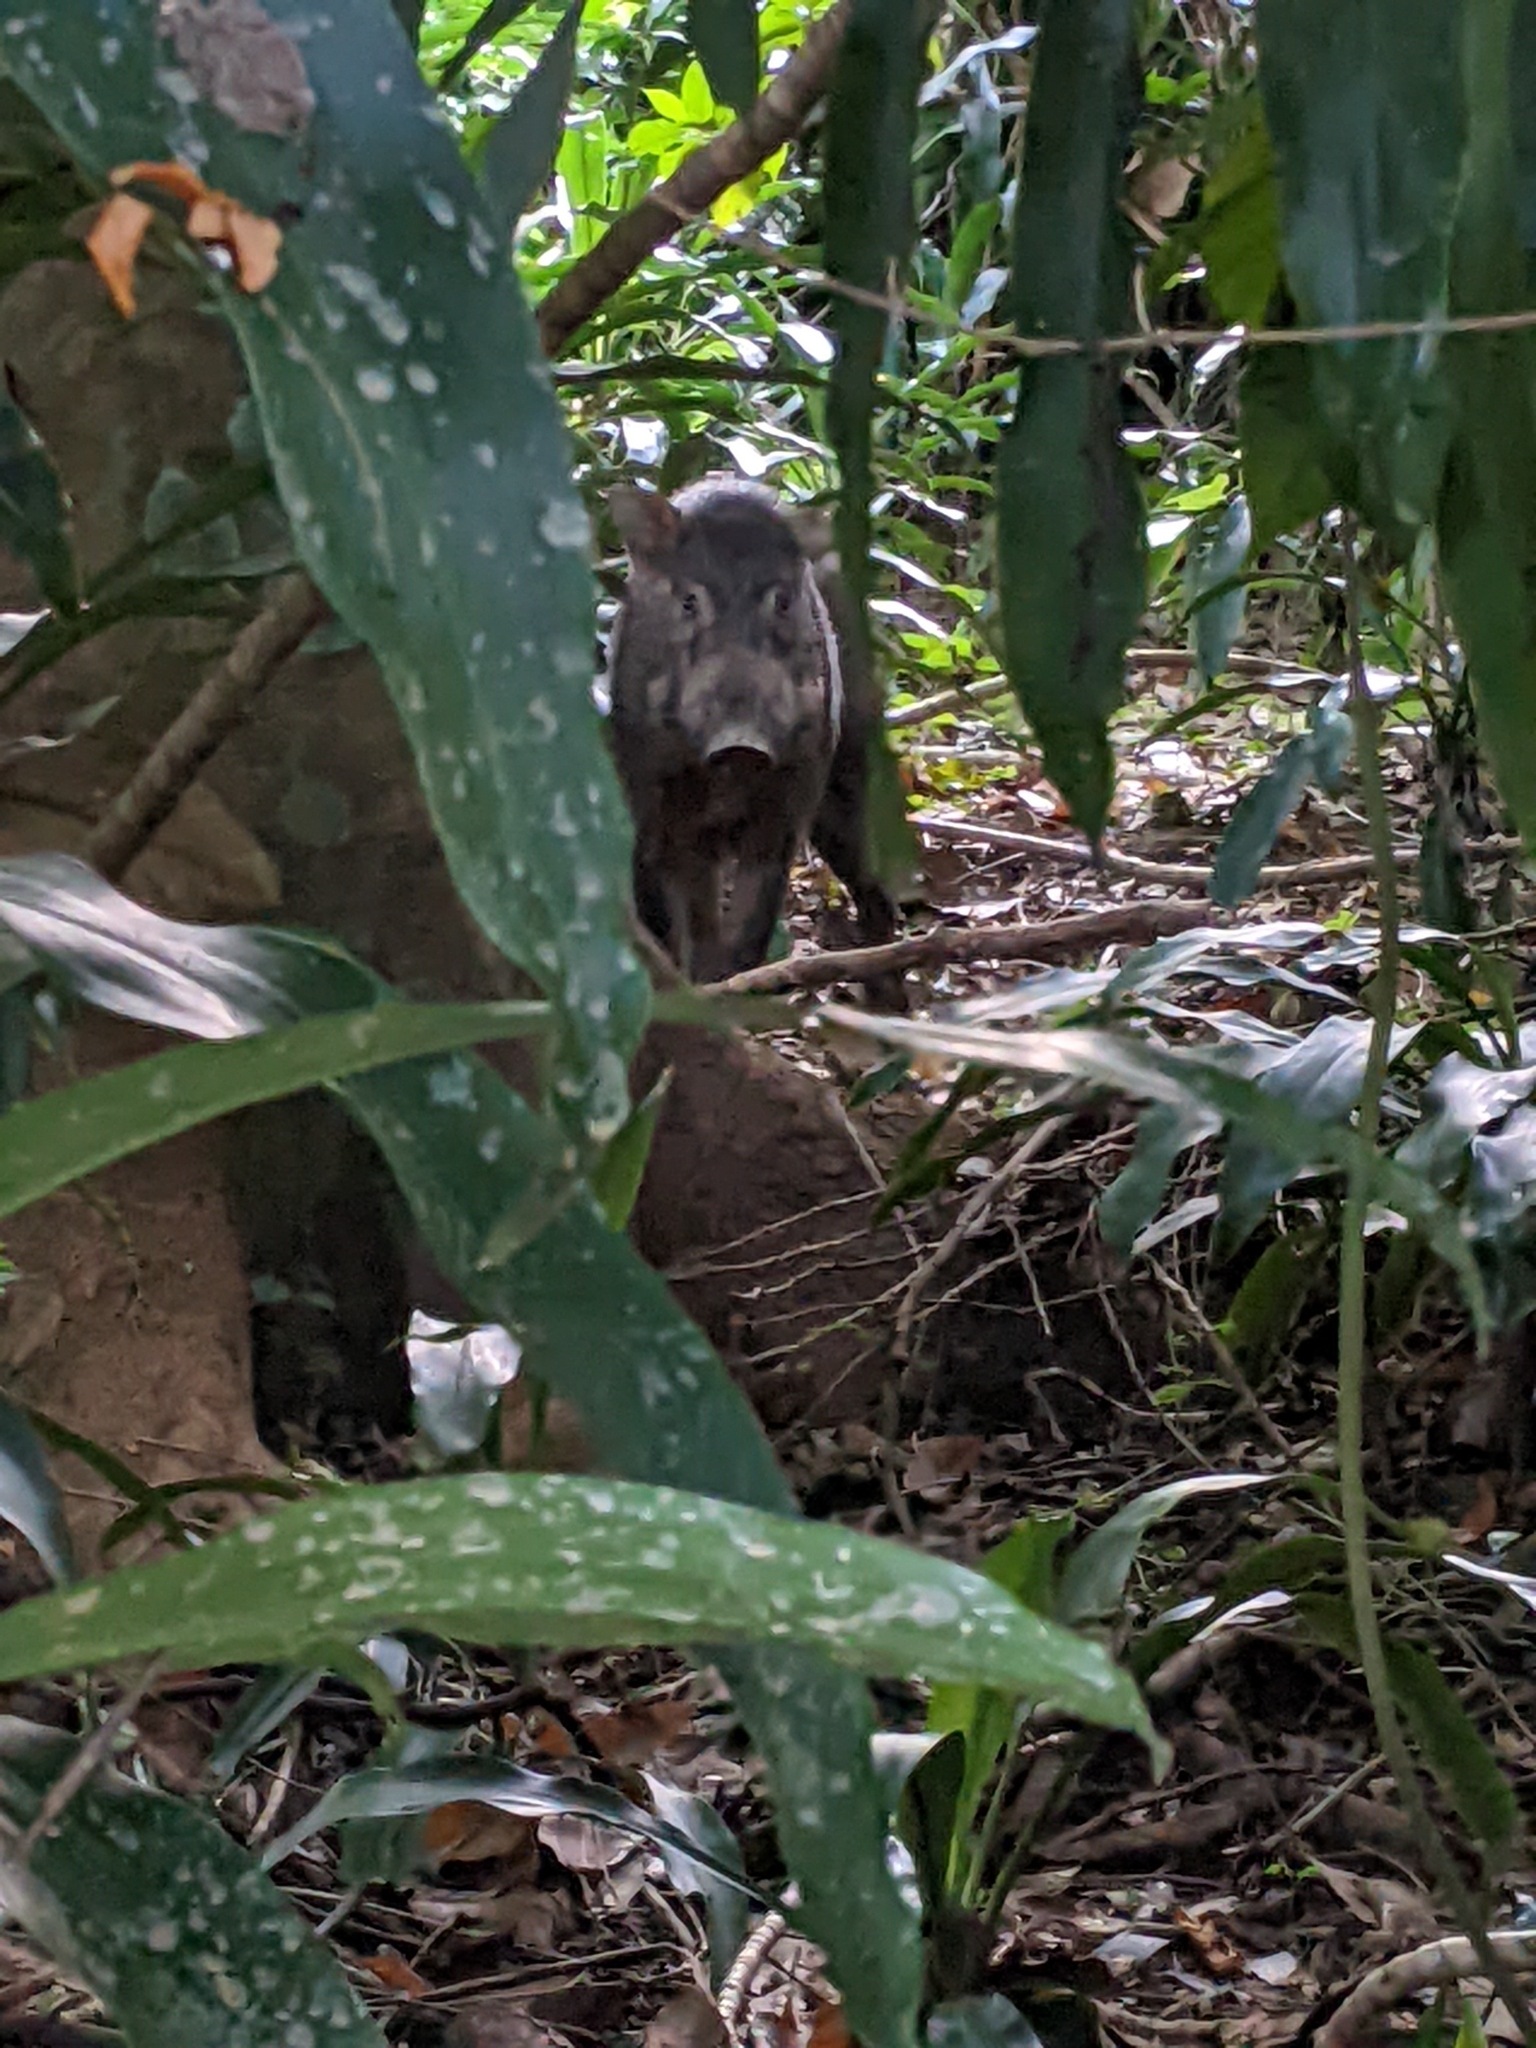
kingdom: Animalia
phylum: Chordata
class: Mammalia
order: Artiodactyla
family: Suidae
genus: Sus
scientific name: Sus scrofa
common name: Wild boar
